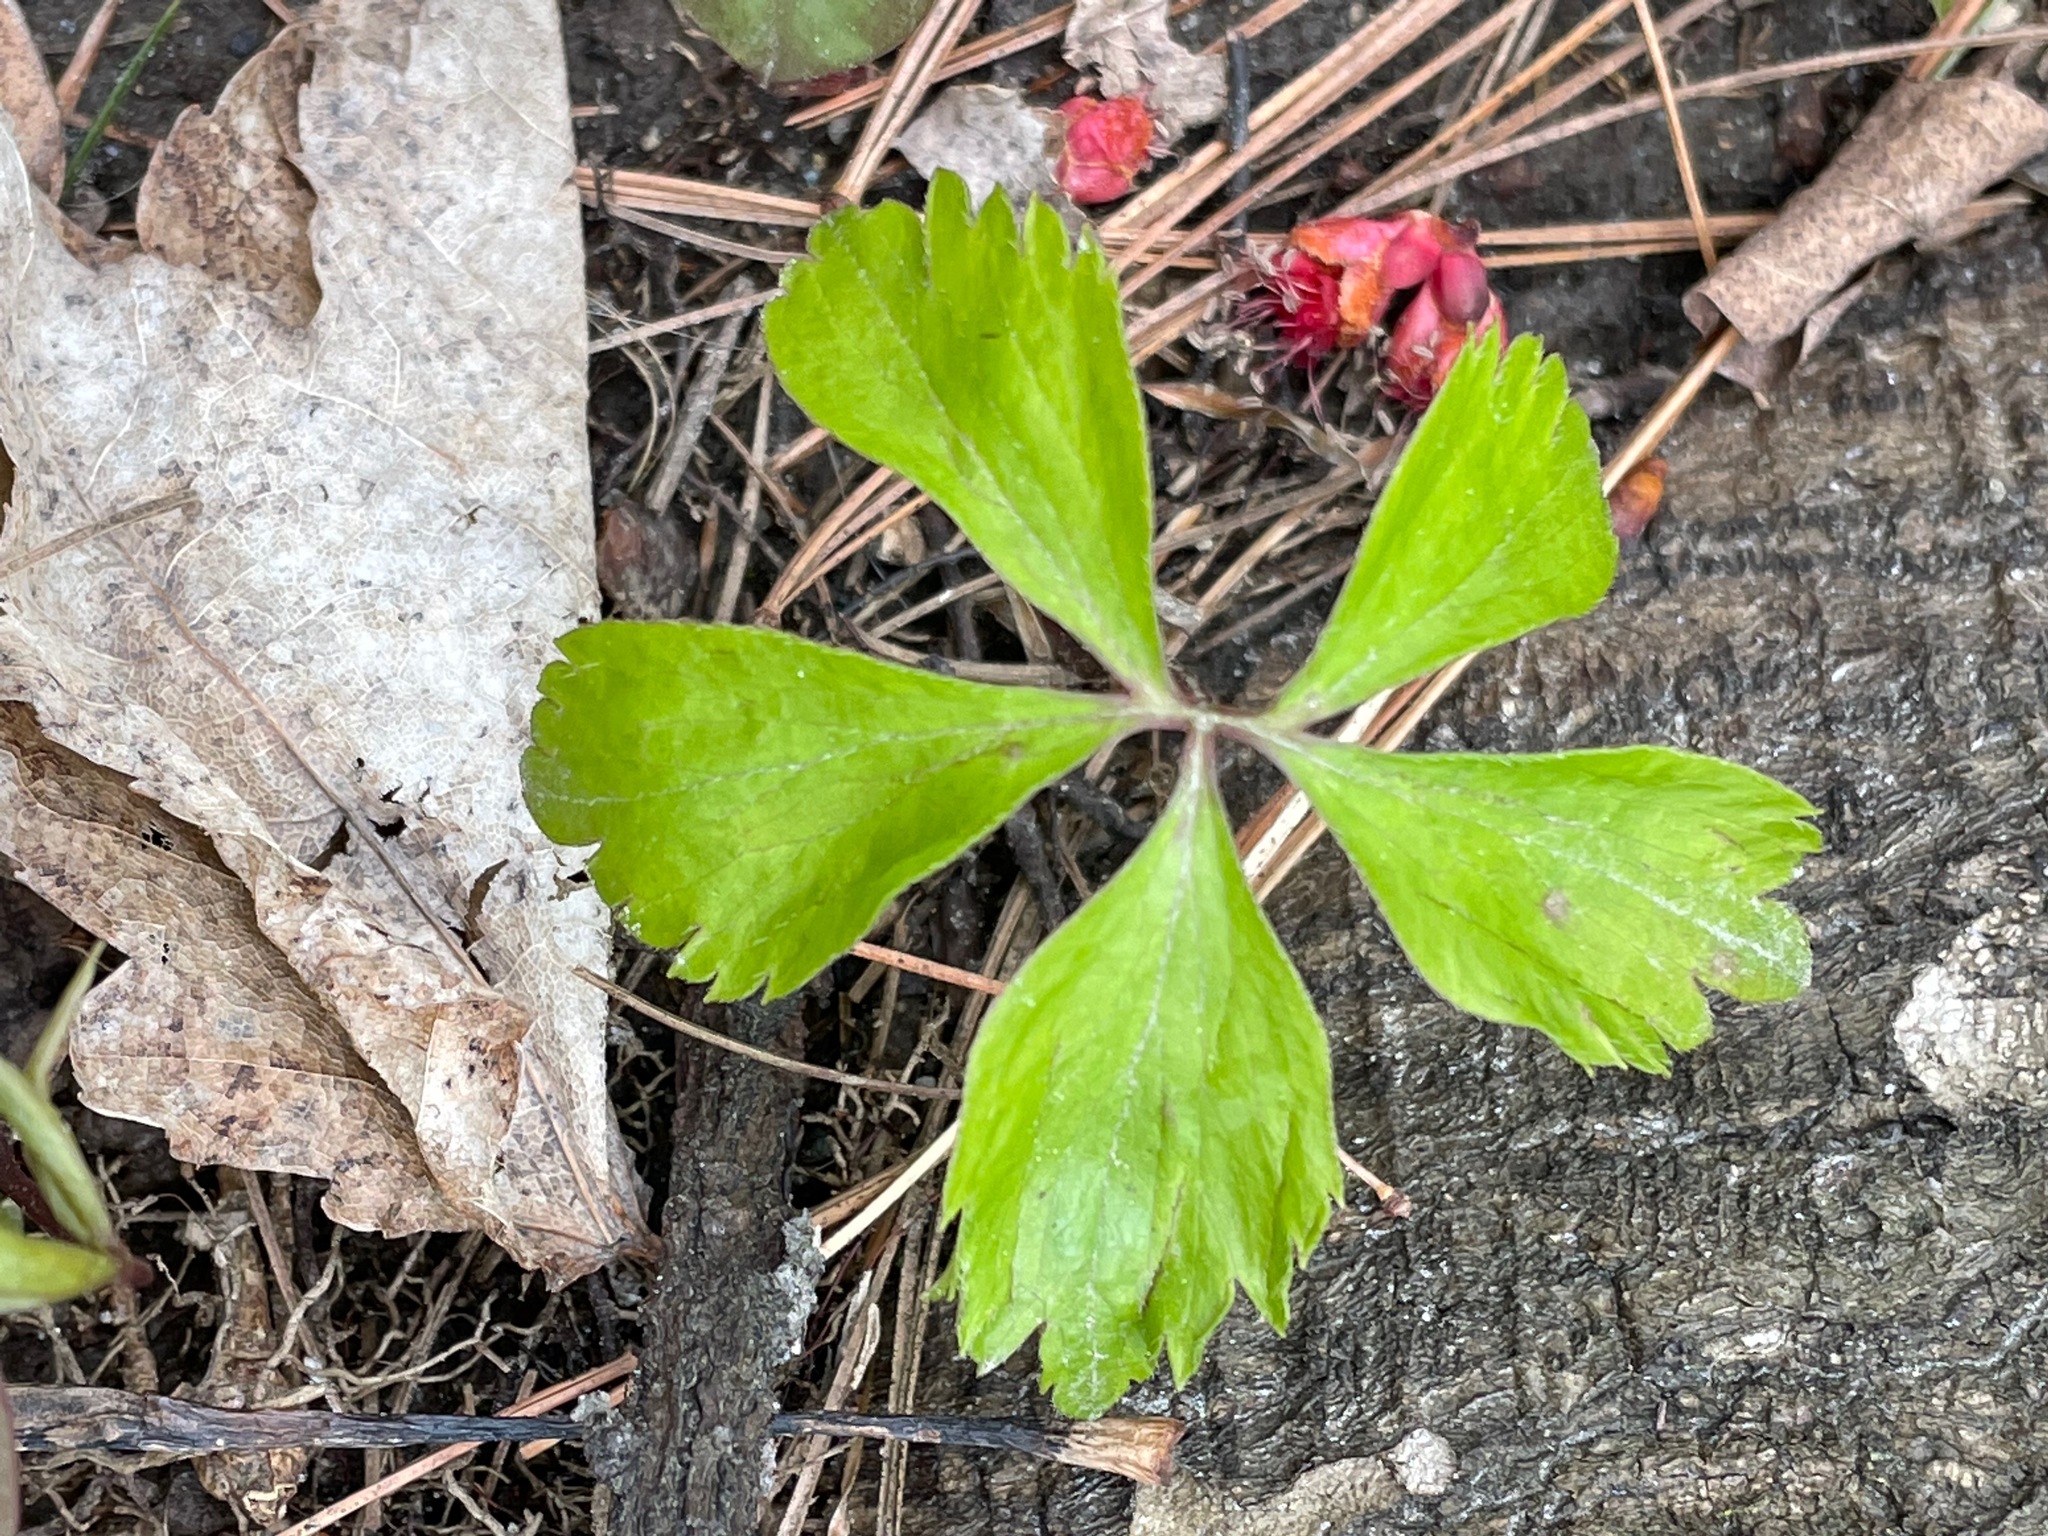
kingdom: Plantae
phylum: Tracheophyta
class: Magnoliopsida
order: Ranunculales
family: Ranunculaceae
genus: Anemone
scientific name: Anemone quinquefolia
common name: Wood anemone
